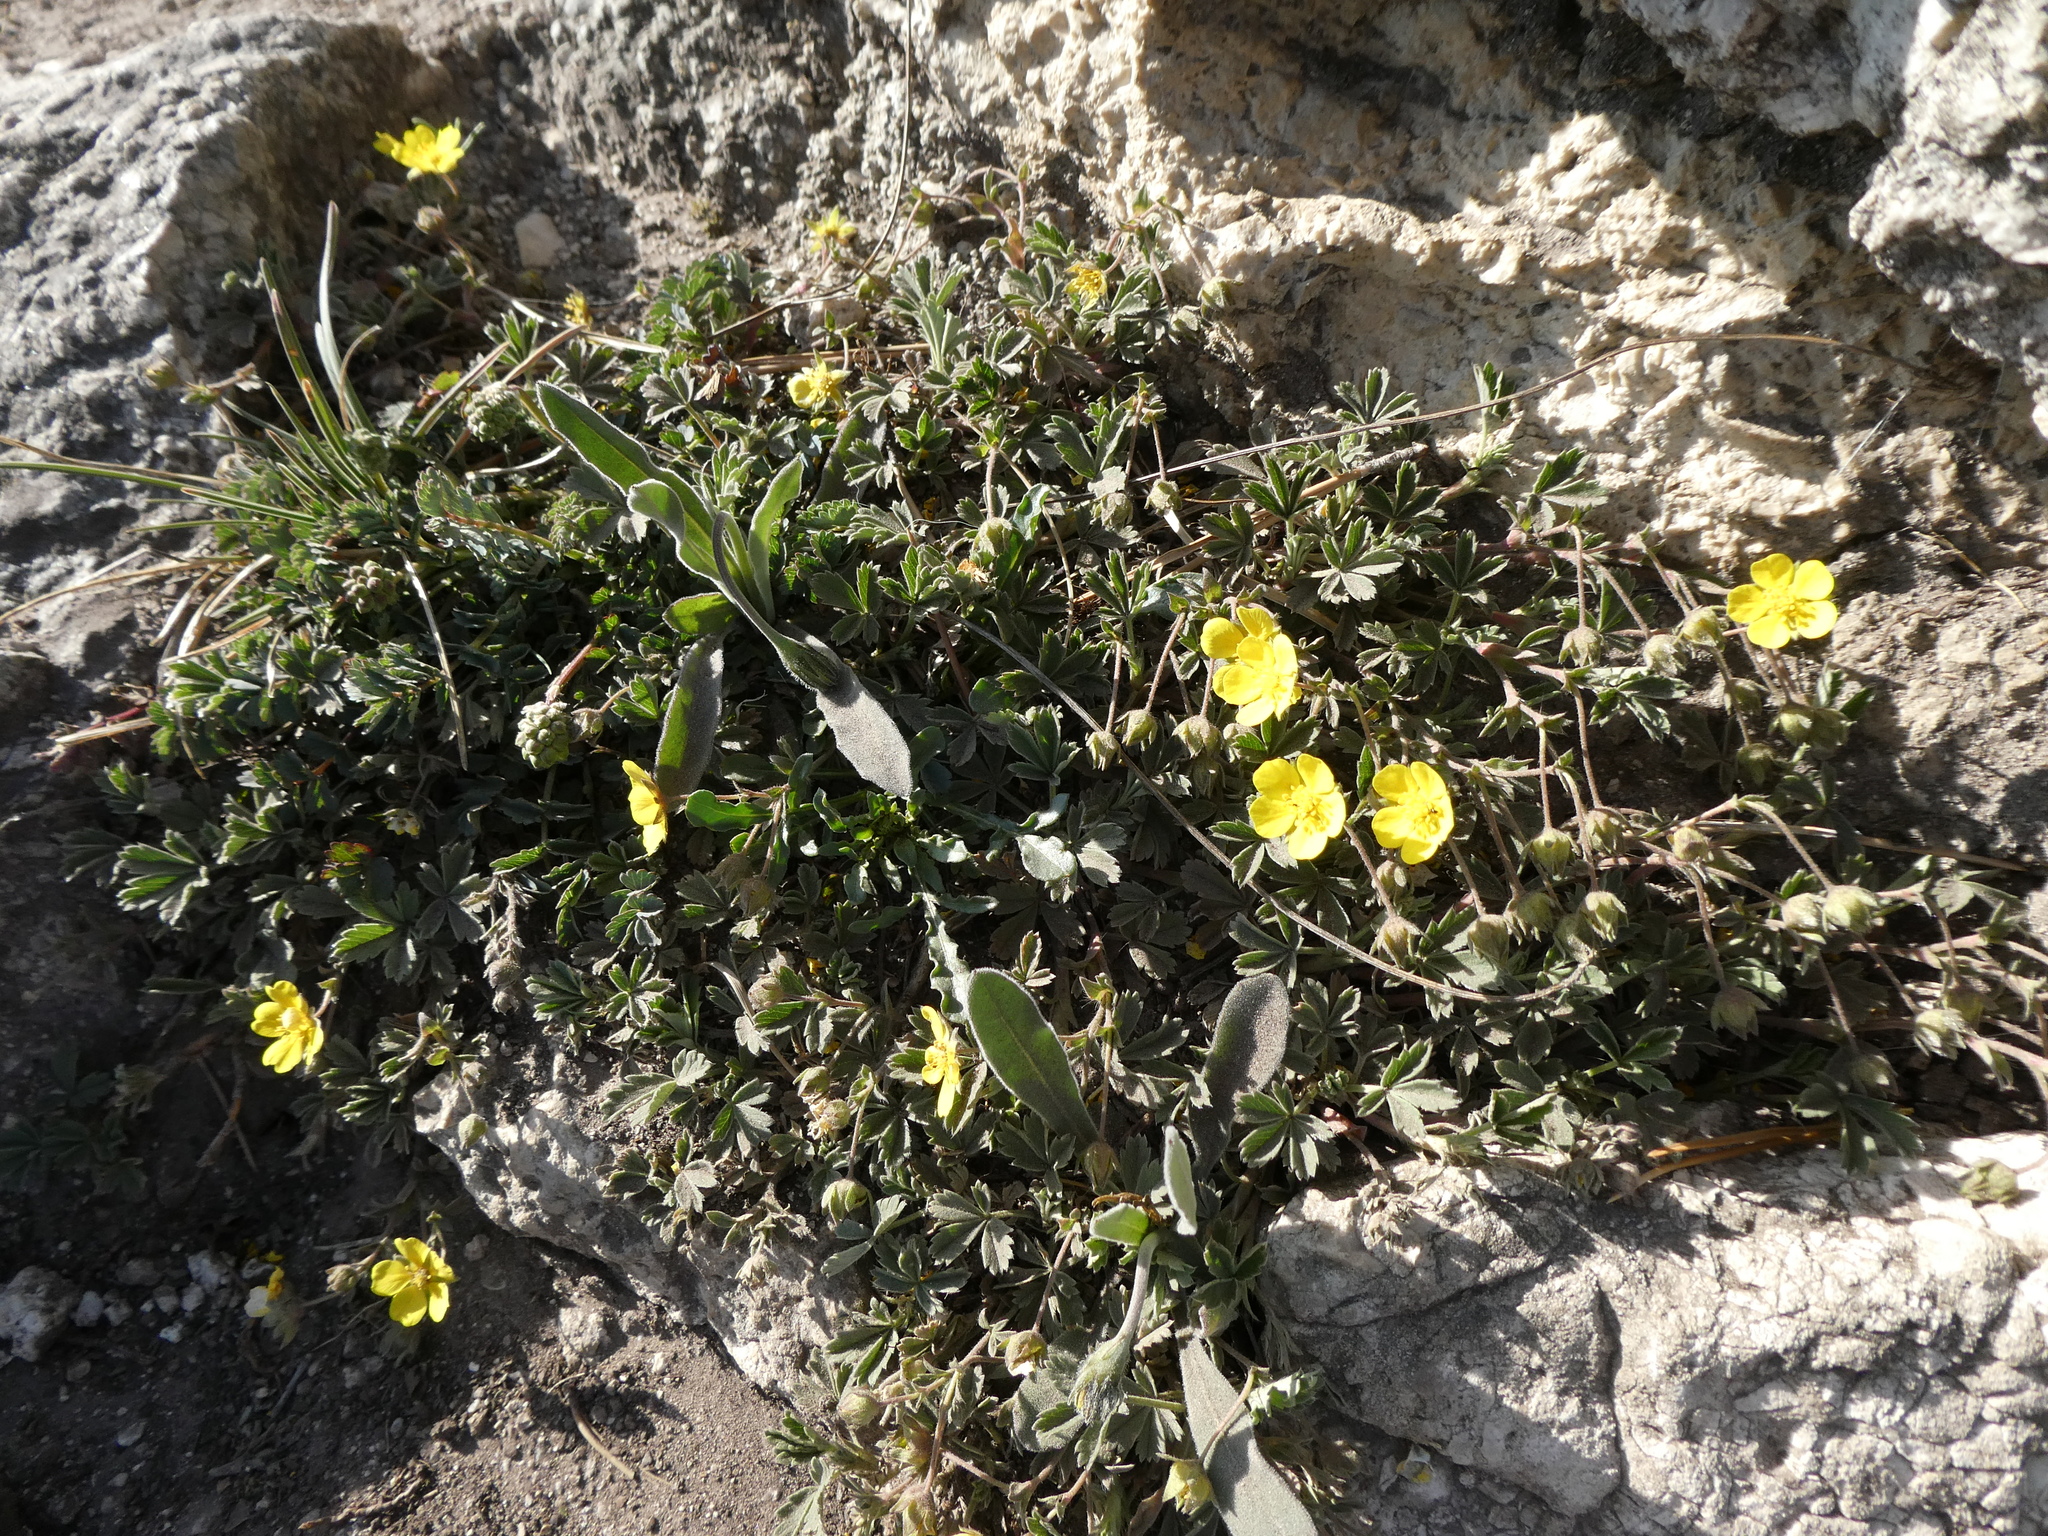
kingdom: Plantae
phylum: Tracheophyta
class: Magnoliopsida
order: Rosales
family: Rosaceae
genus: Potentilla
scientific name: Potentilla incana
